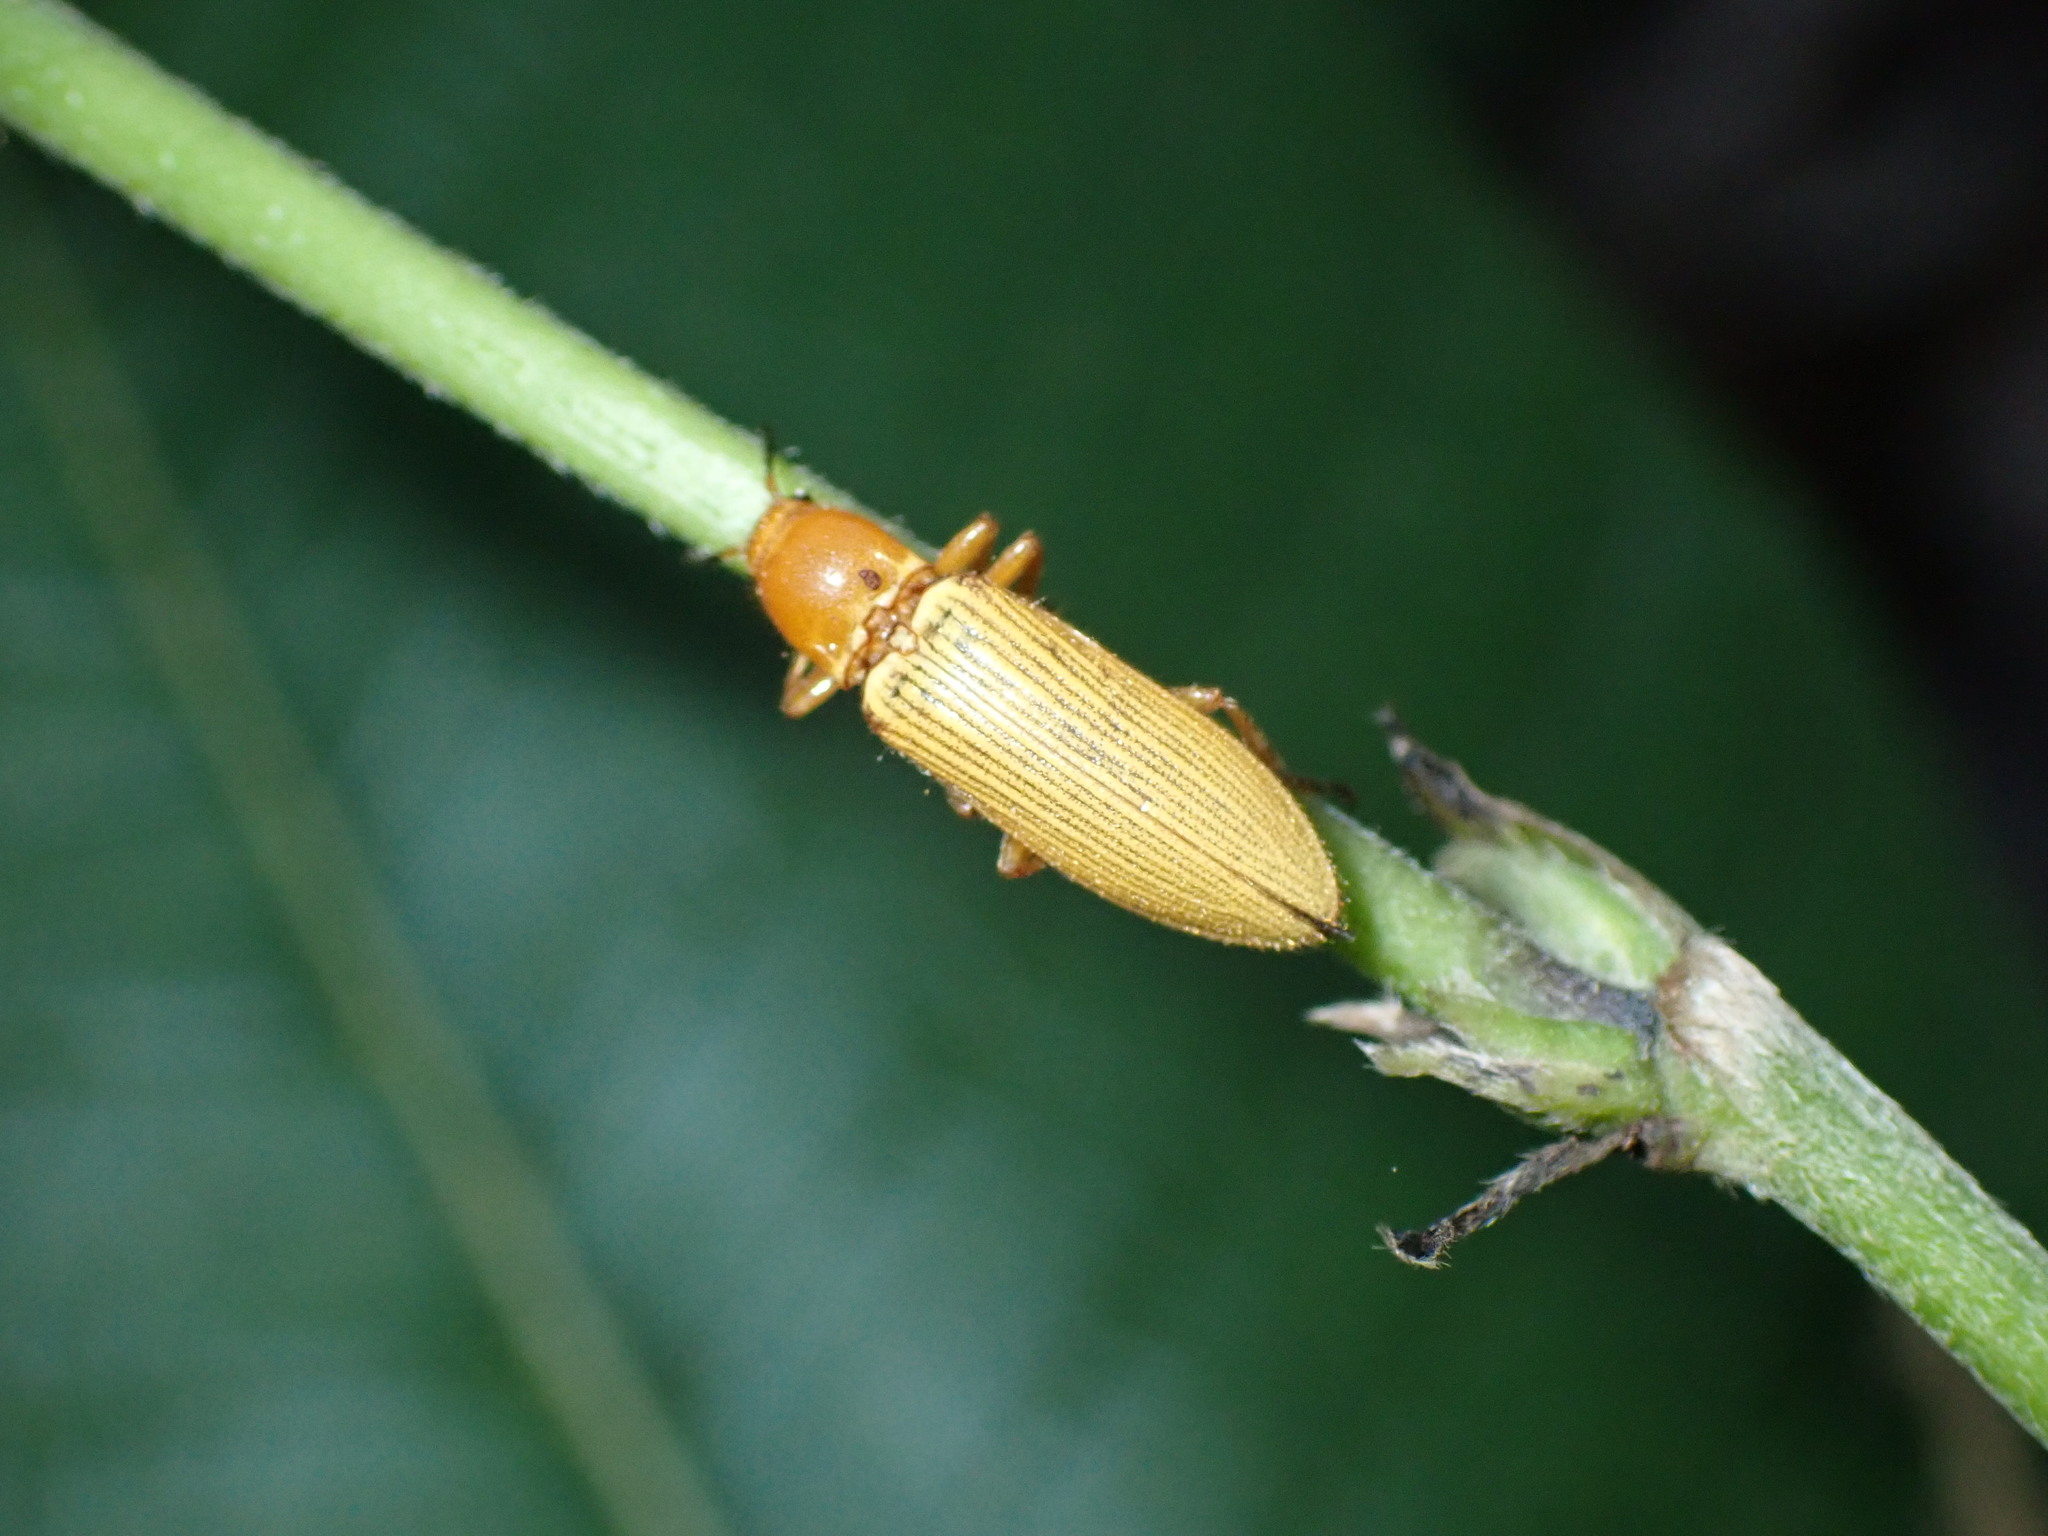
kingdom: Animalia
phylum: Arthropoda
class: Insecta
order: Coleoptera
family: Elateridae
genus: Hemiops
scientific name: Hemiops flava
